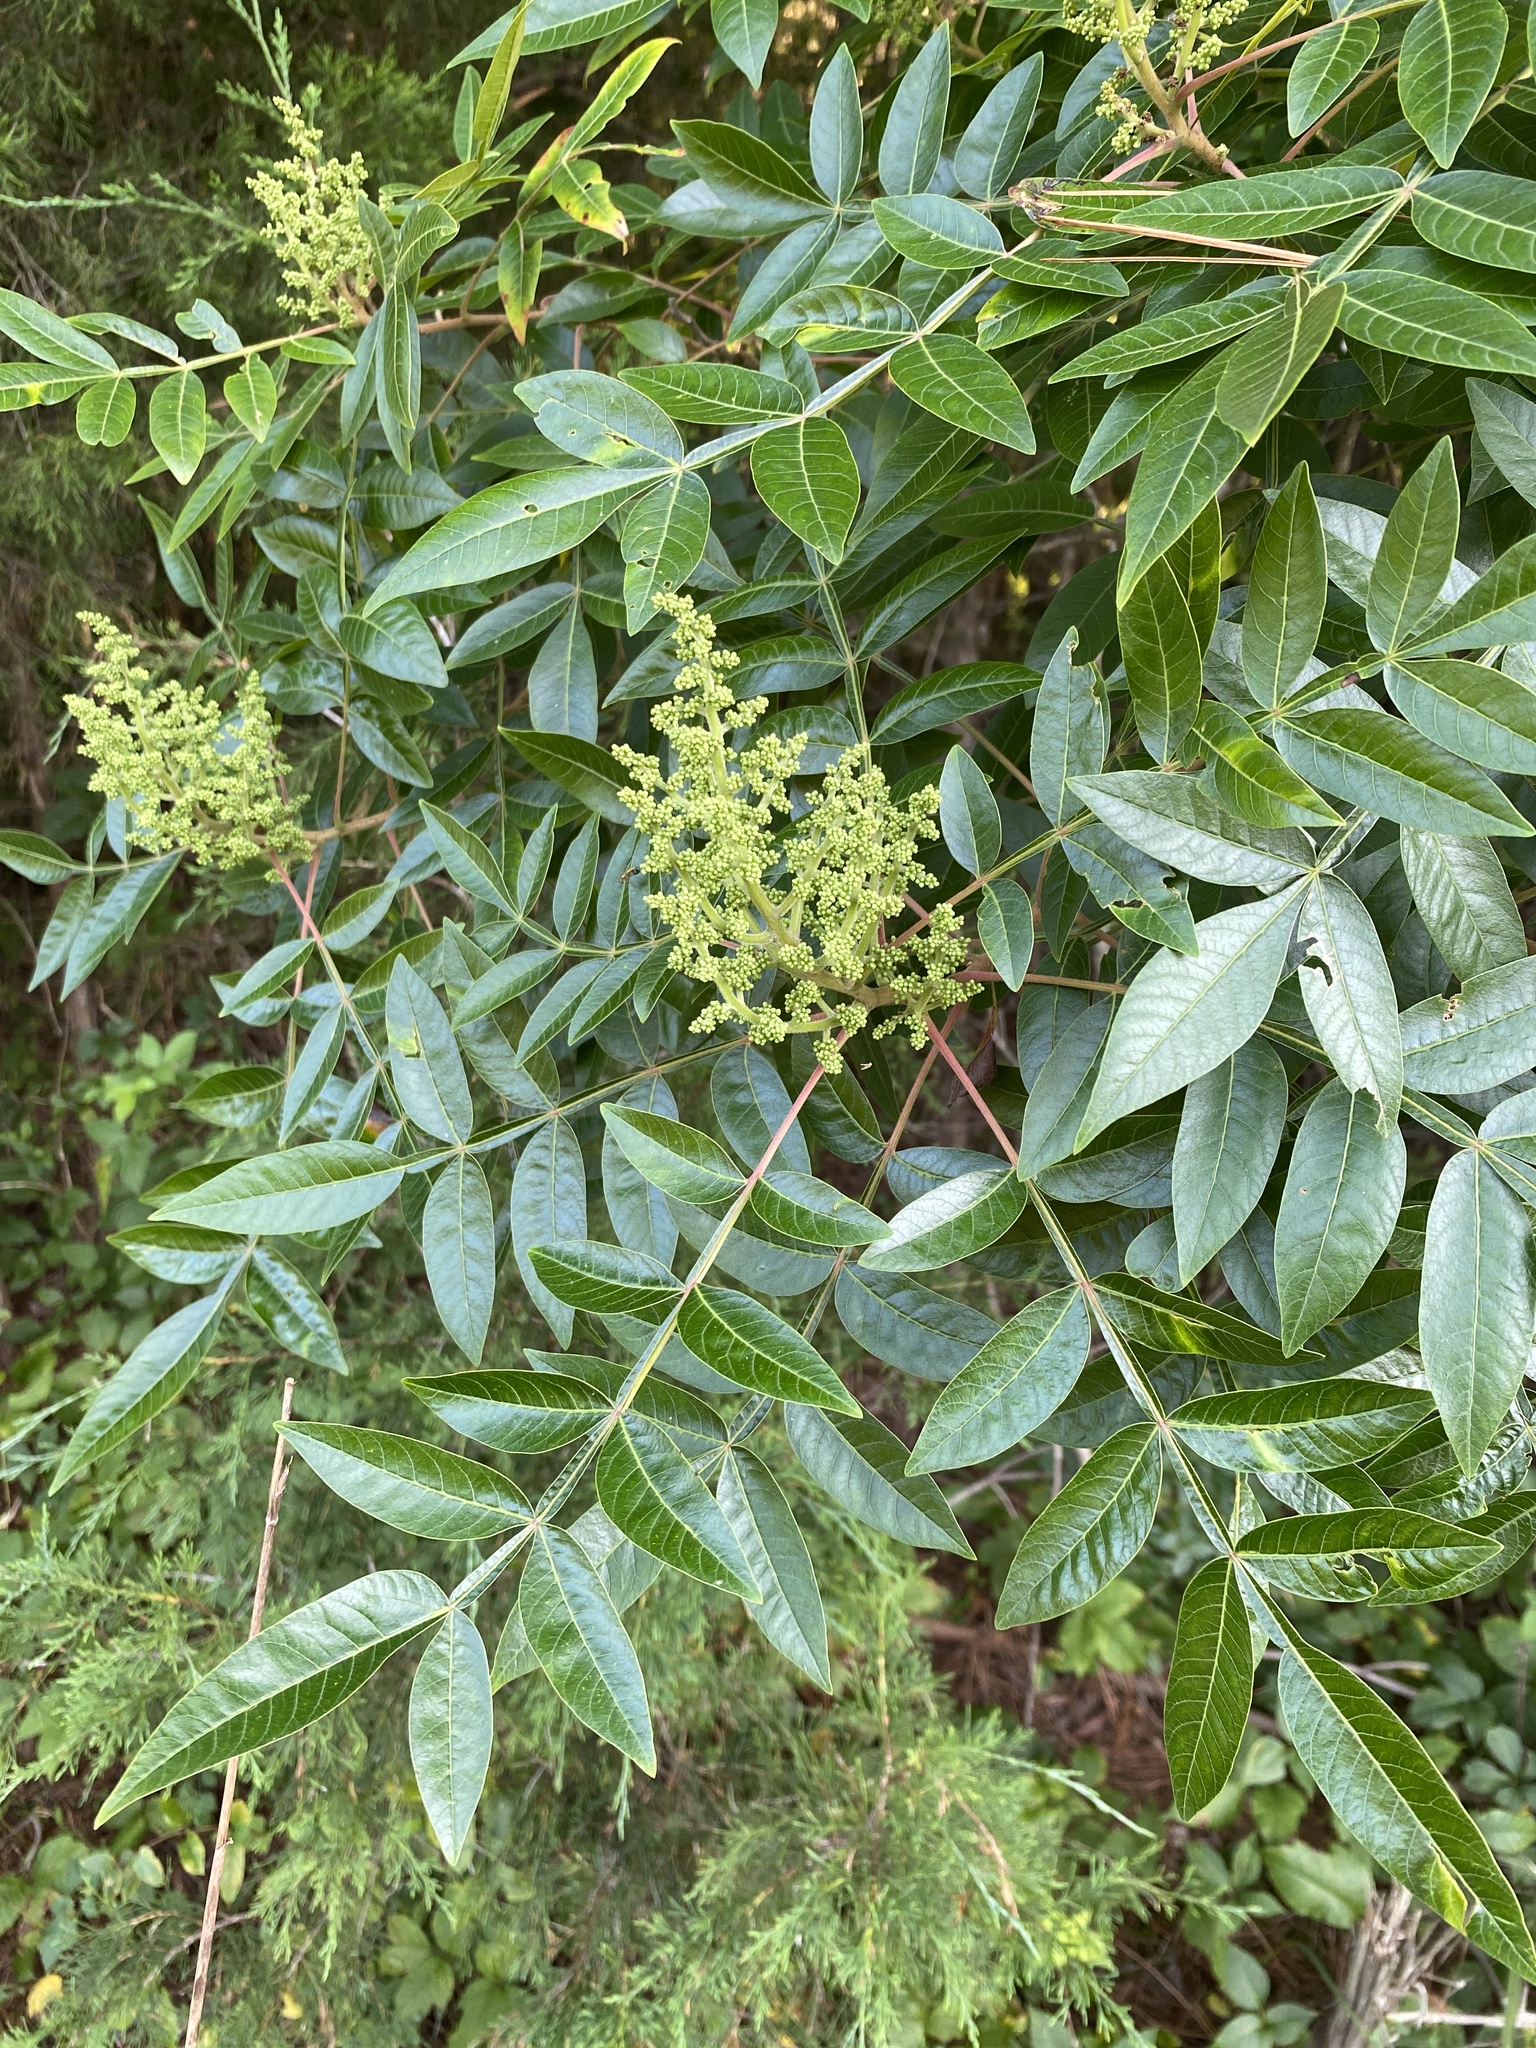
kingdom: Plantae
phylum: Tracheophyta
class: Magnoliopsida
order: Sapindales
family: Anacardiaceae
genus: Rhus
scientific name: Rhus copallina
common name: Shining sumac
